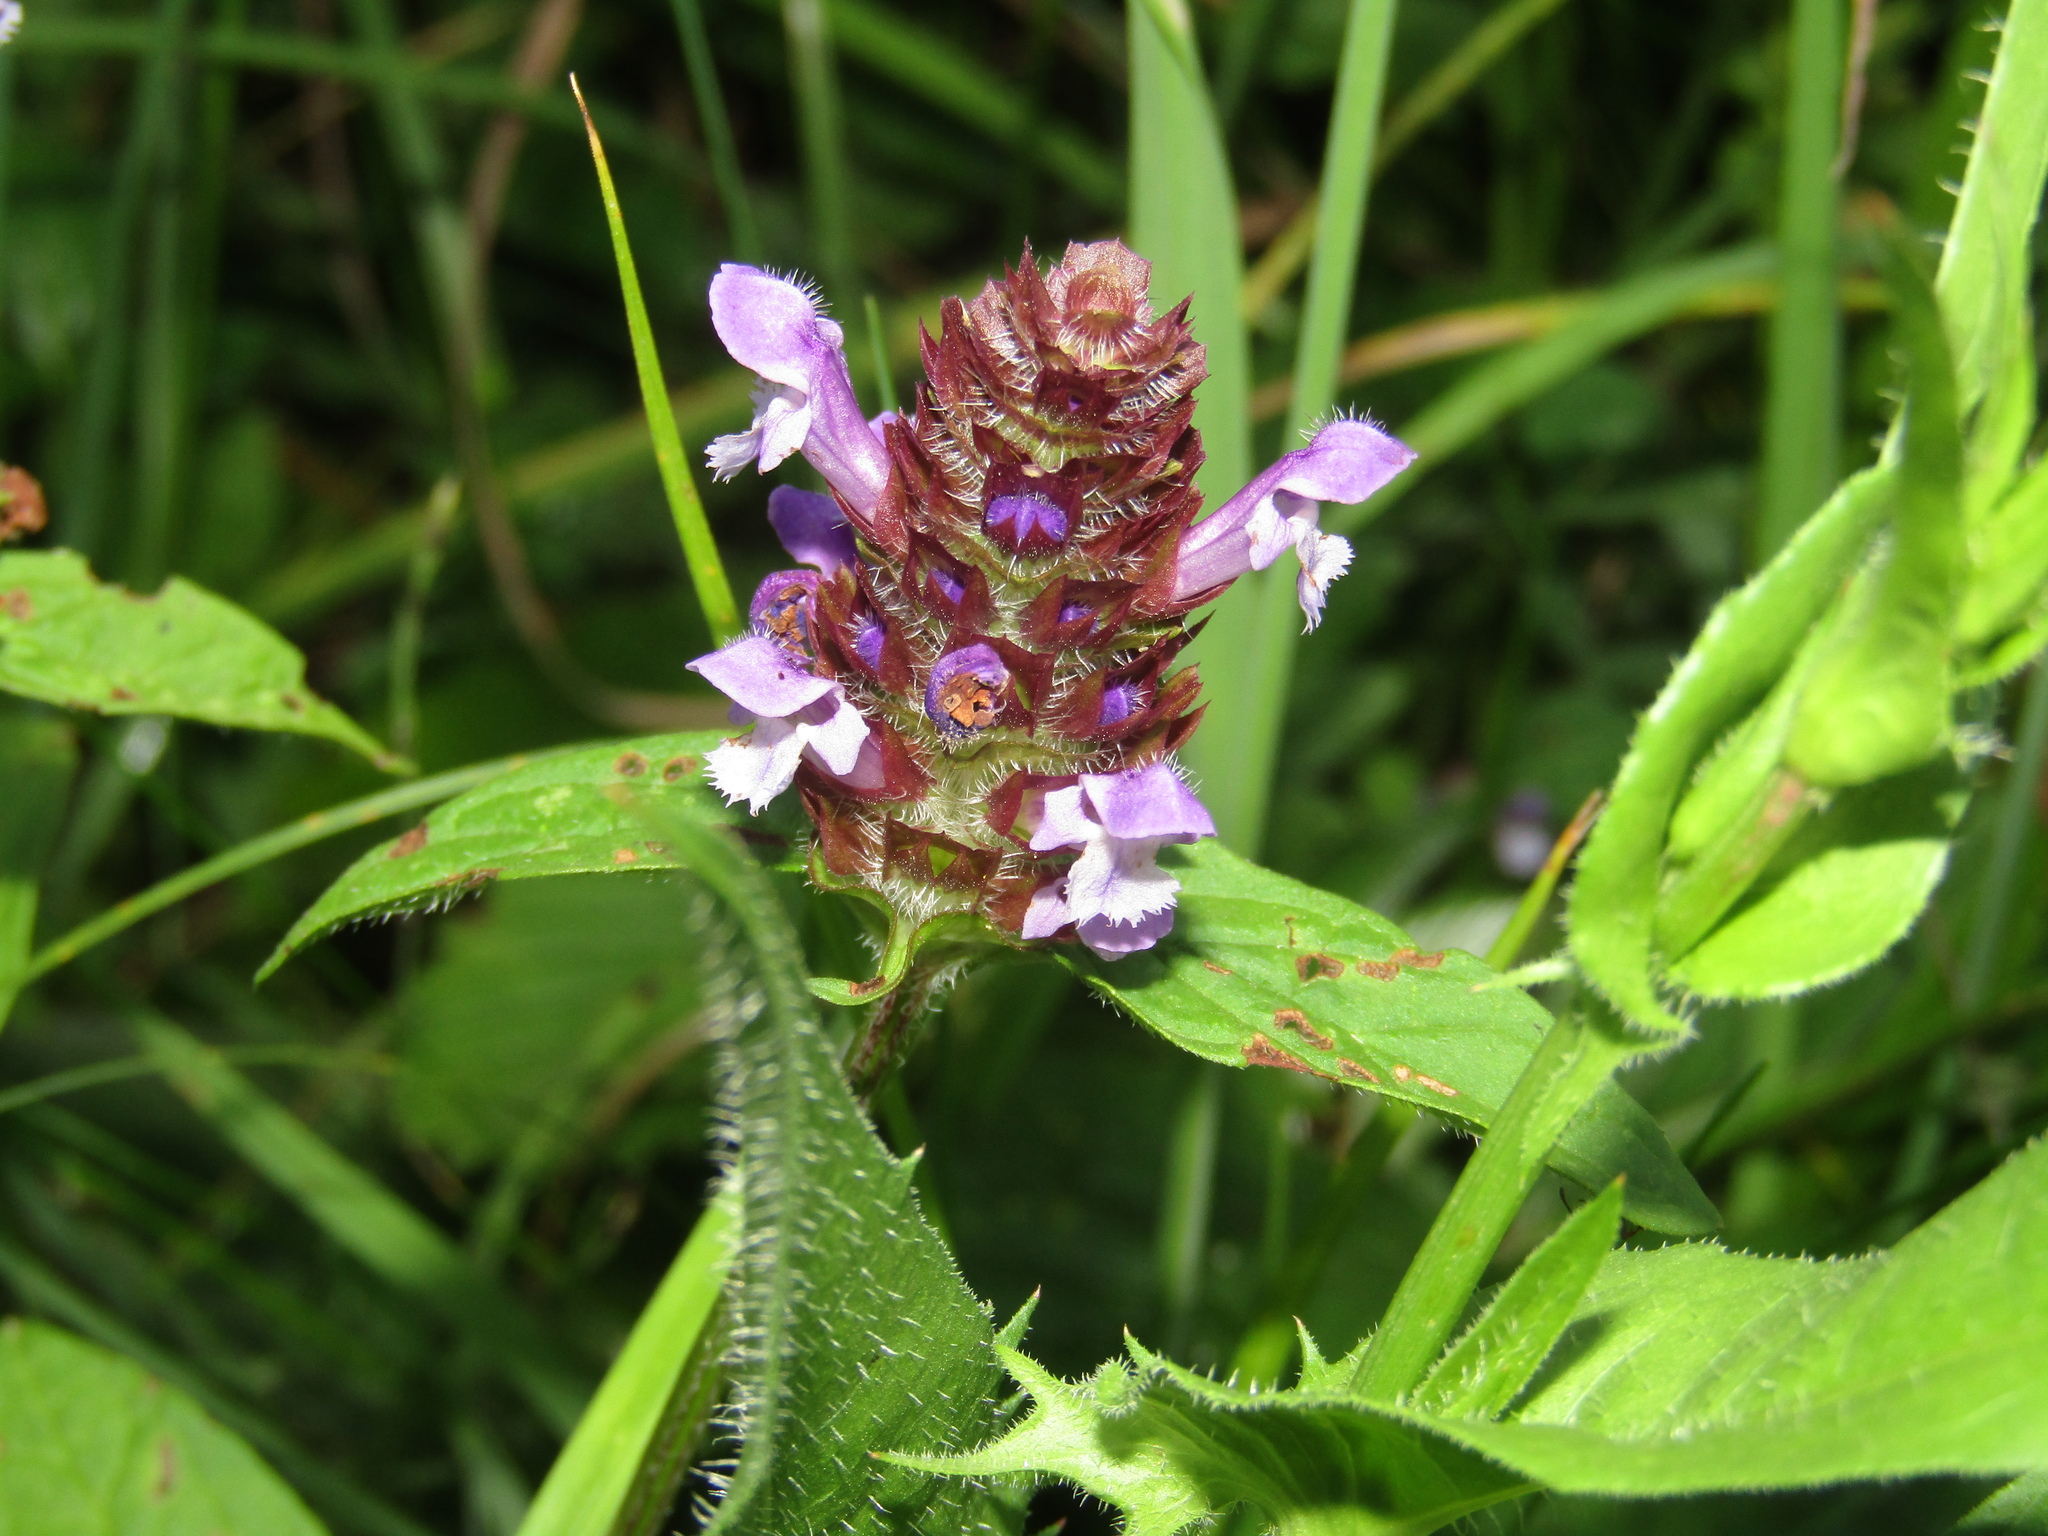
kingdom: Plantae
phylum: Tracheophyta
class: Magnoliopsida
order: Lamiales
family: Lamiaceae
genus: Prunella
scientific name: Prunella vulgaris
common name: Heal-all
